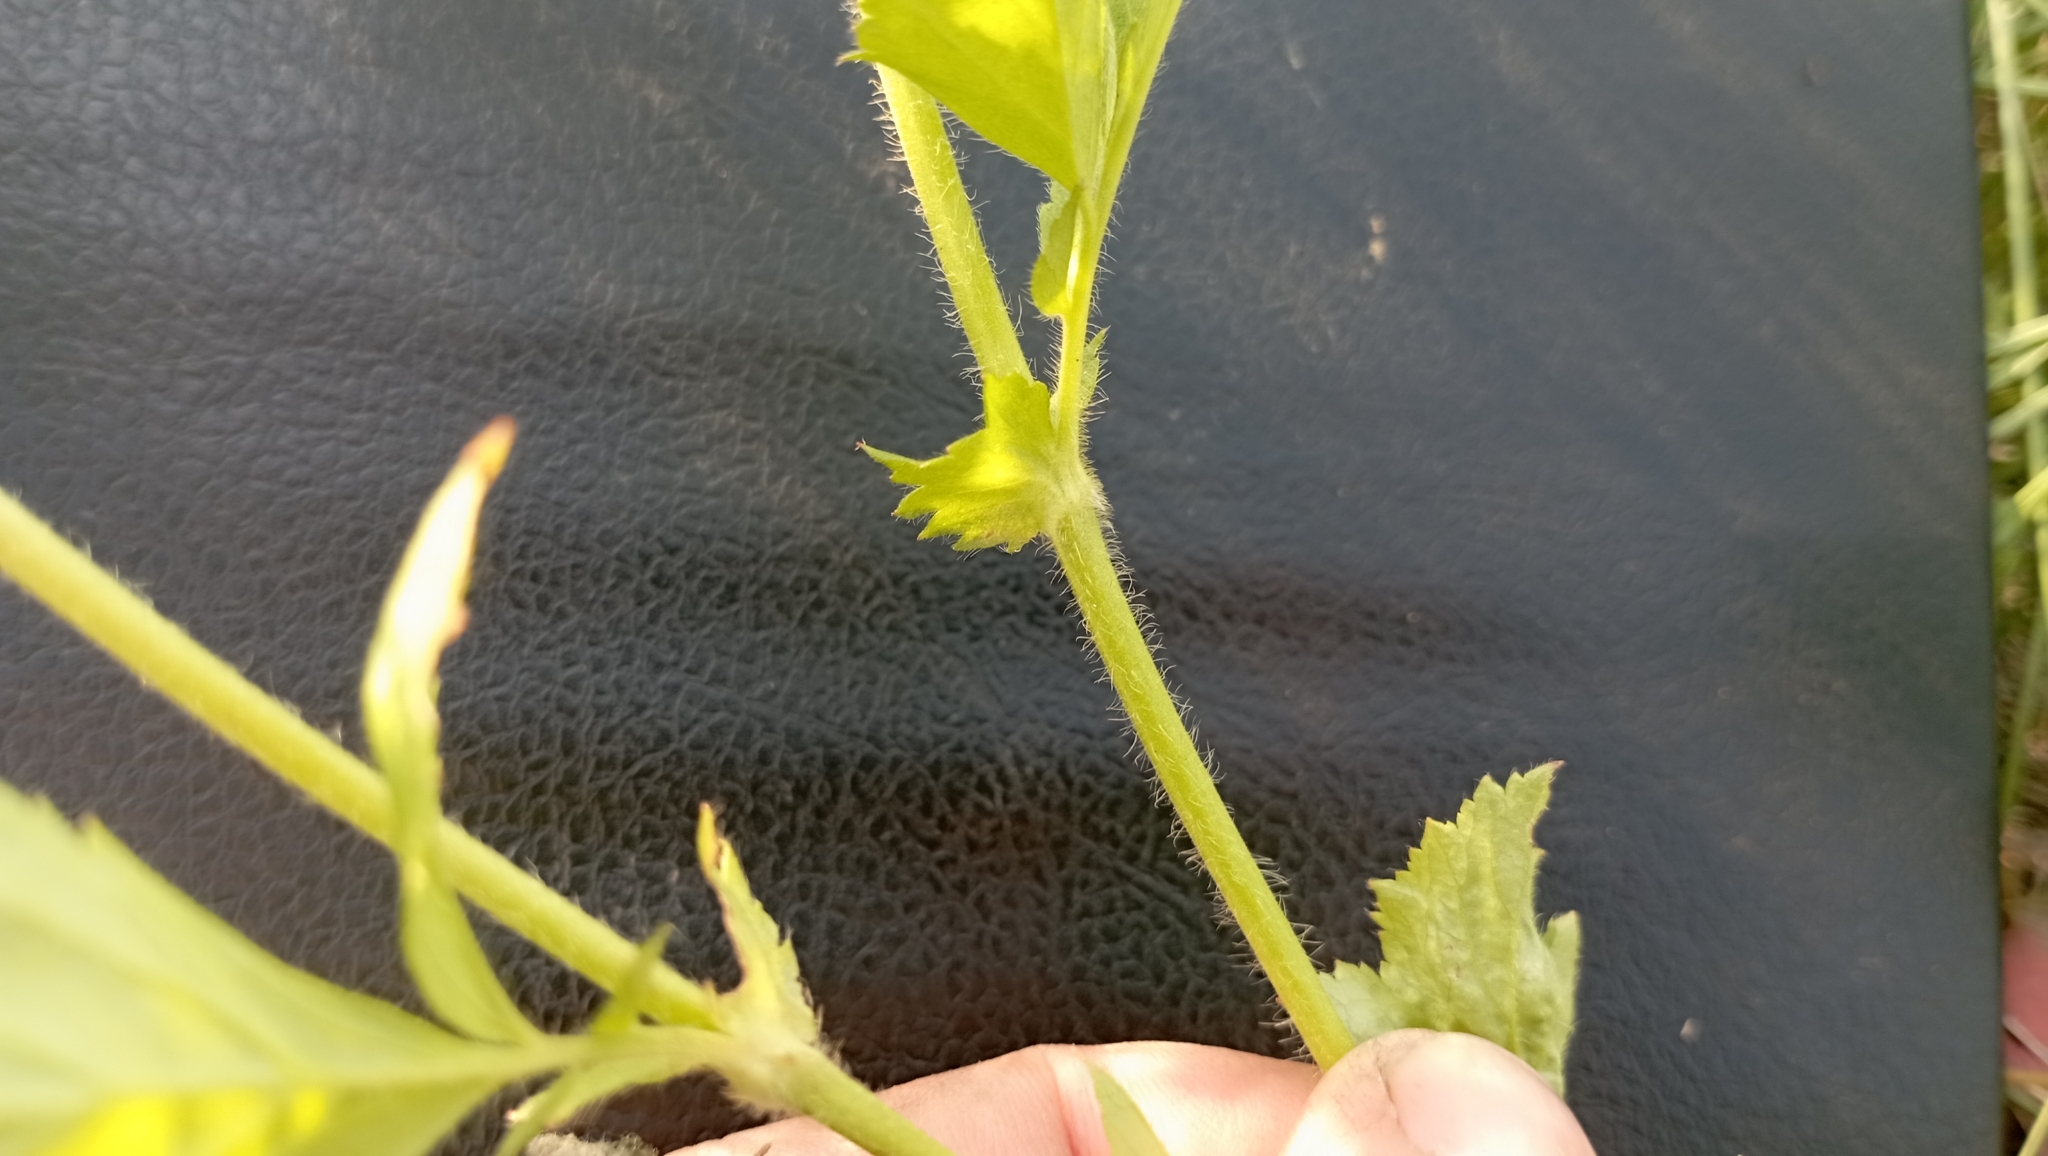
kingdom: Plantae
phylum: Tracheophyta
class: Magnoliopsida
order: Rosales
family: Rosaceae
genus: Geum
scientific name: Geum aleppicum
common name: Yellow avens
